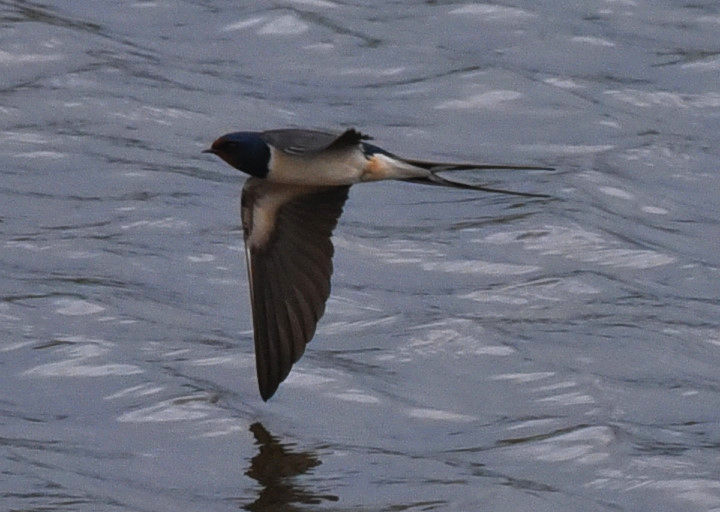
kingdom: Animalia
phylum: Chordata
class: Aves
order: Passeriformes
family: Hirundinidae
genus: Hirundo
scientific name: Hirundo rustica
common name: Barn swallow
